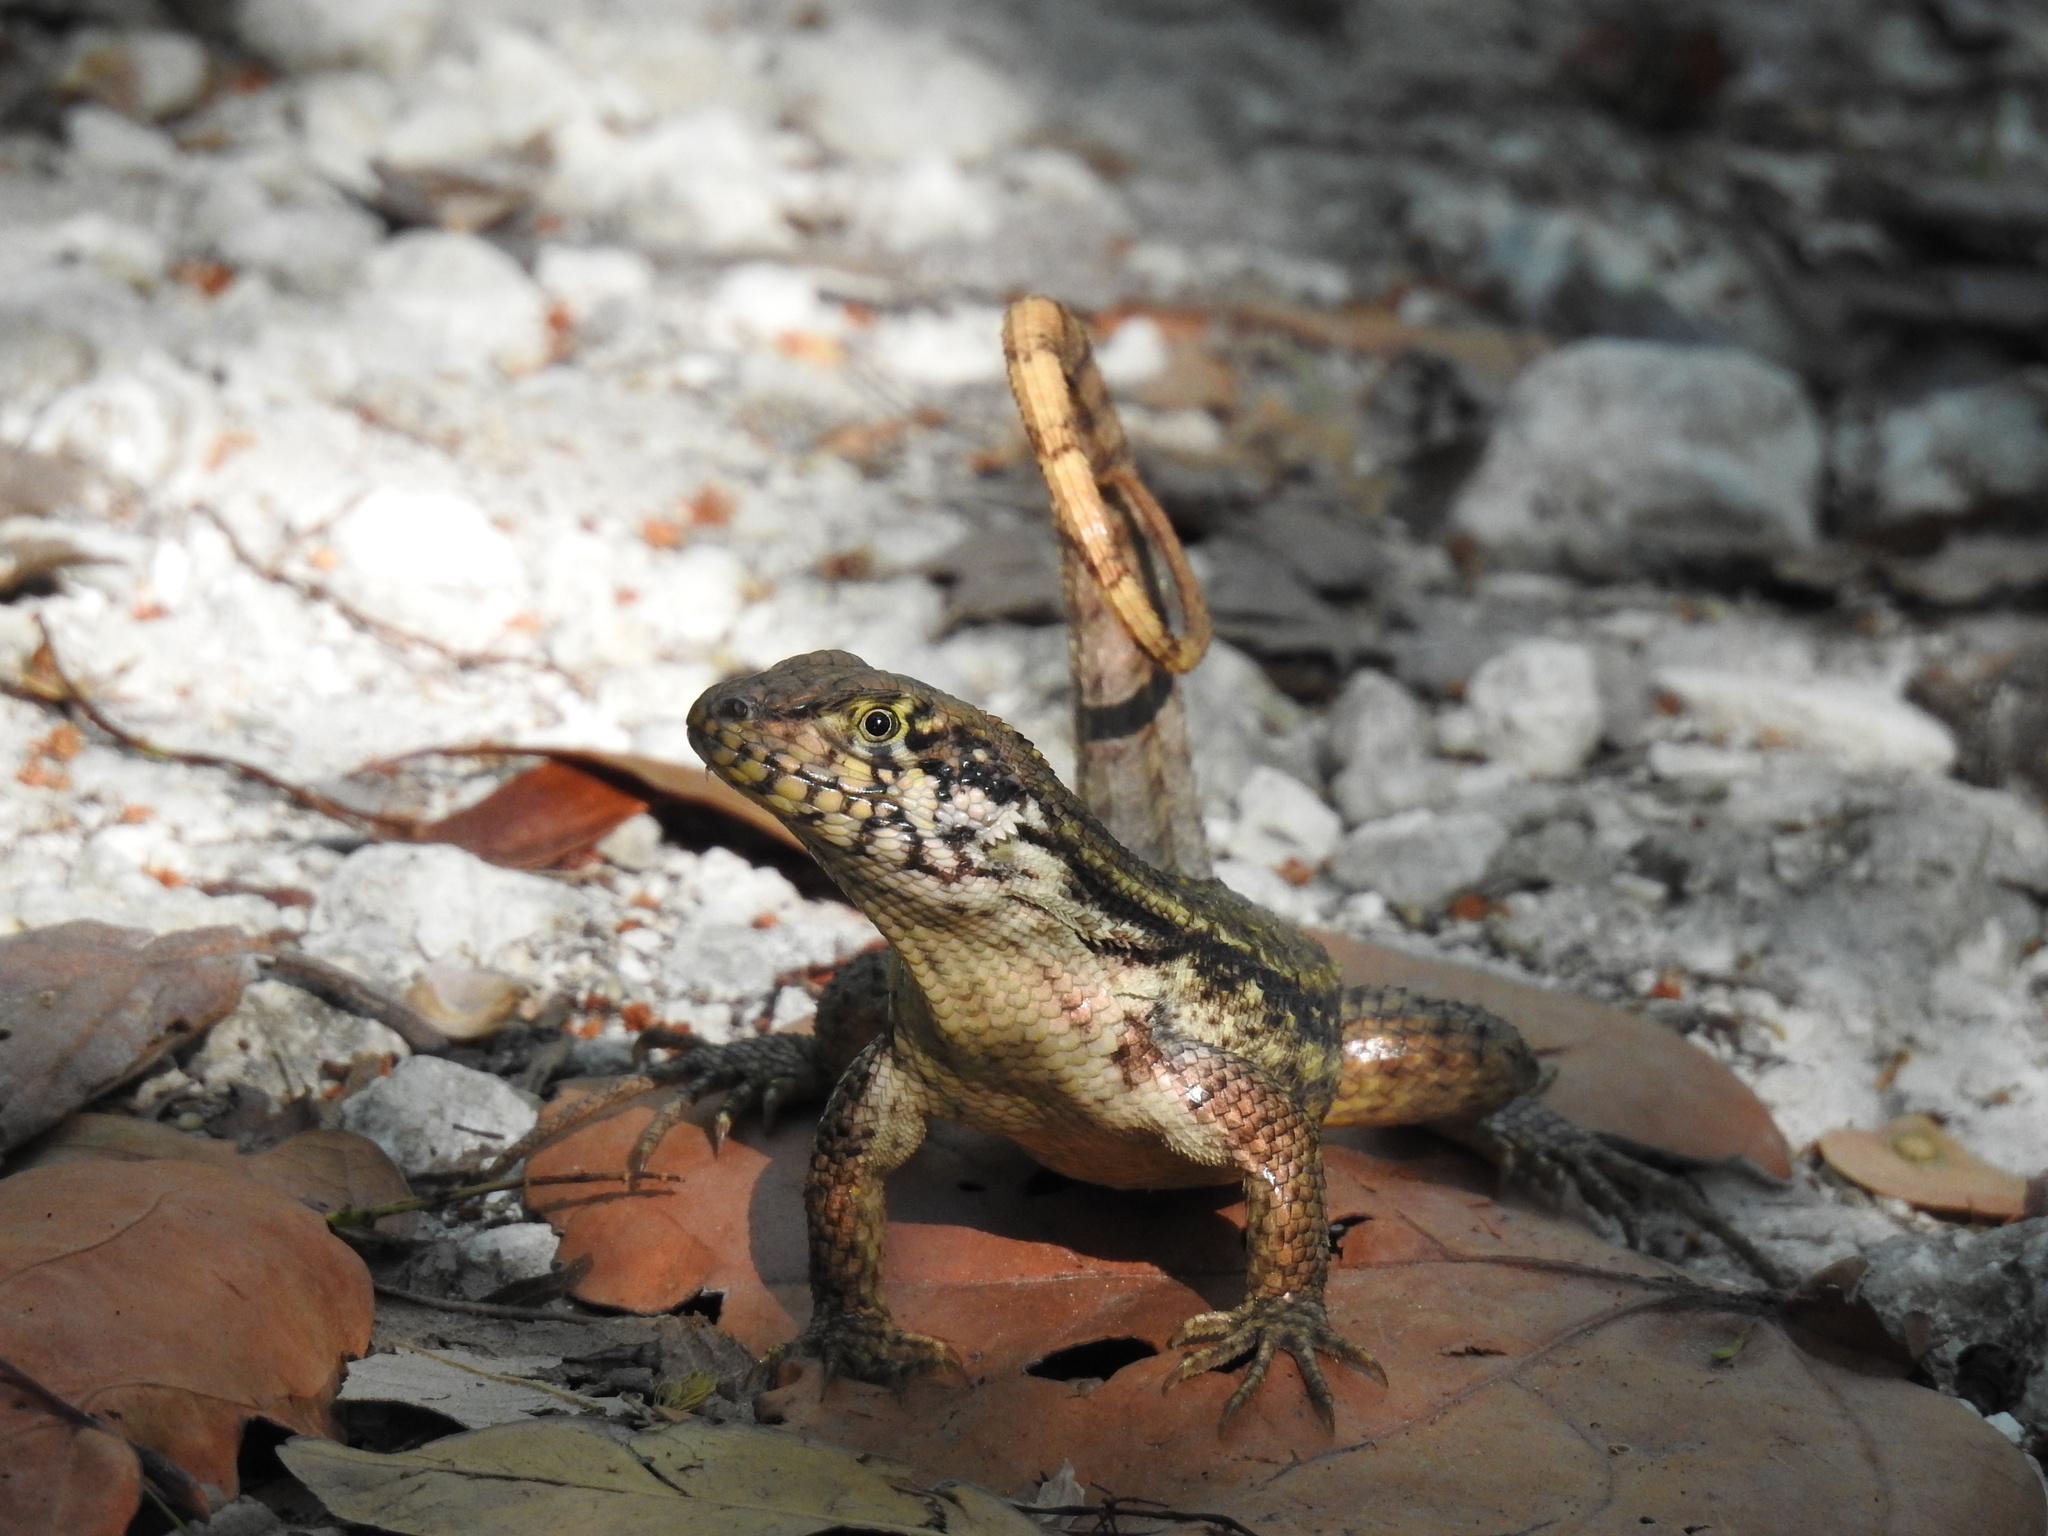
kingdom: Animalia
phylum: Chordata
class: Squamata
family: Leiocephalidae
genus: Leiocephalus
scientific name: Leiocephalus carinatus
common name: Northern curly-tailed lizard
